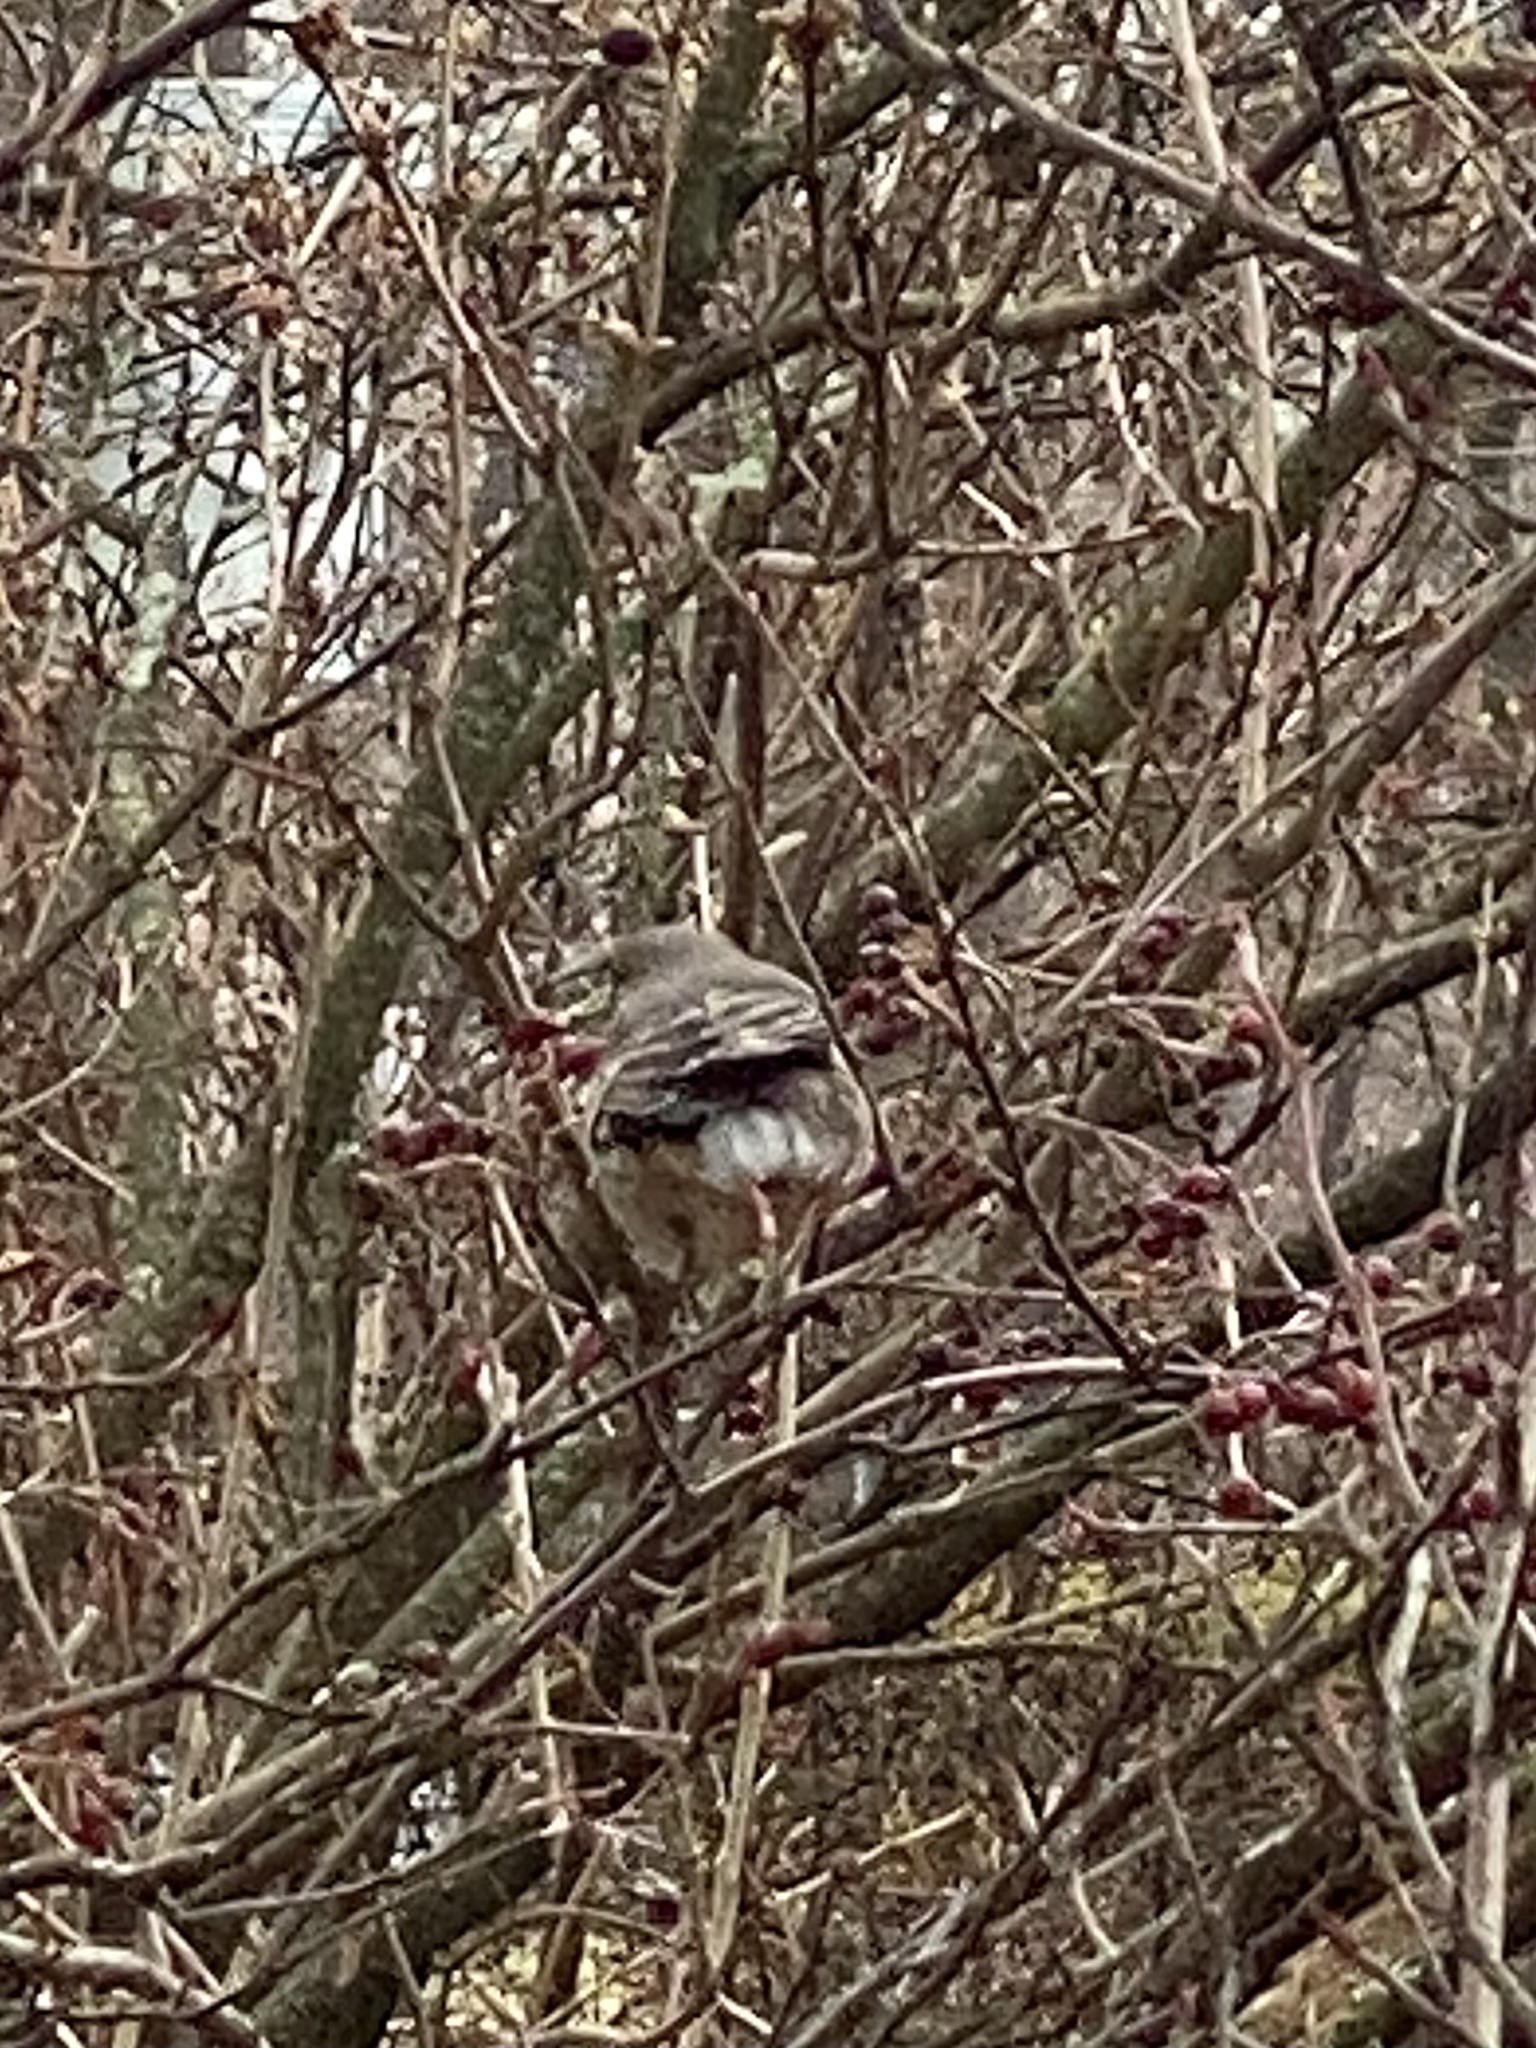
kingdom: Animalia
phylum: Chordata
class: Aves
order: Passeriformes
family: Mimidae
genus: Mimus
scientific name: Mimus polyglottos
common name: Northern mockingbird
